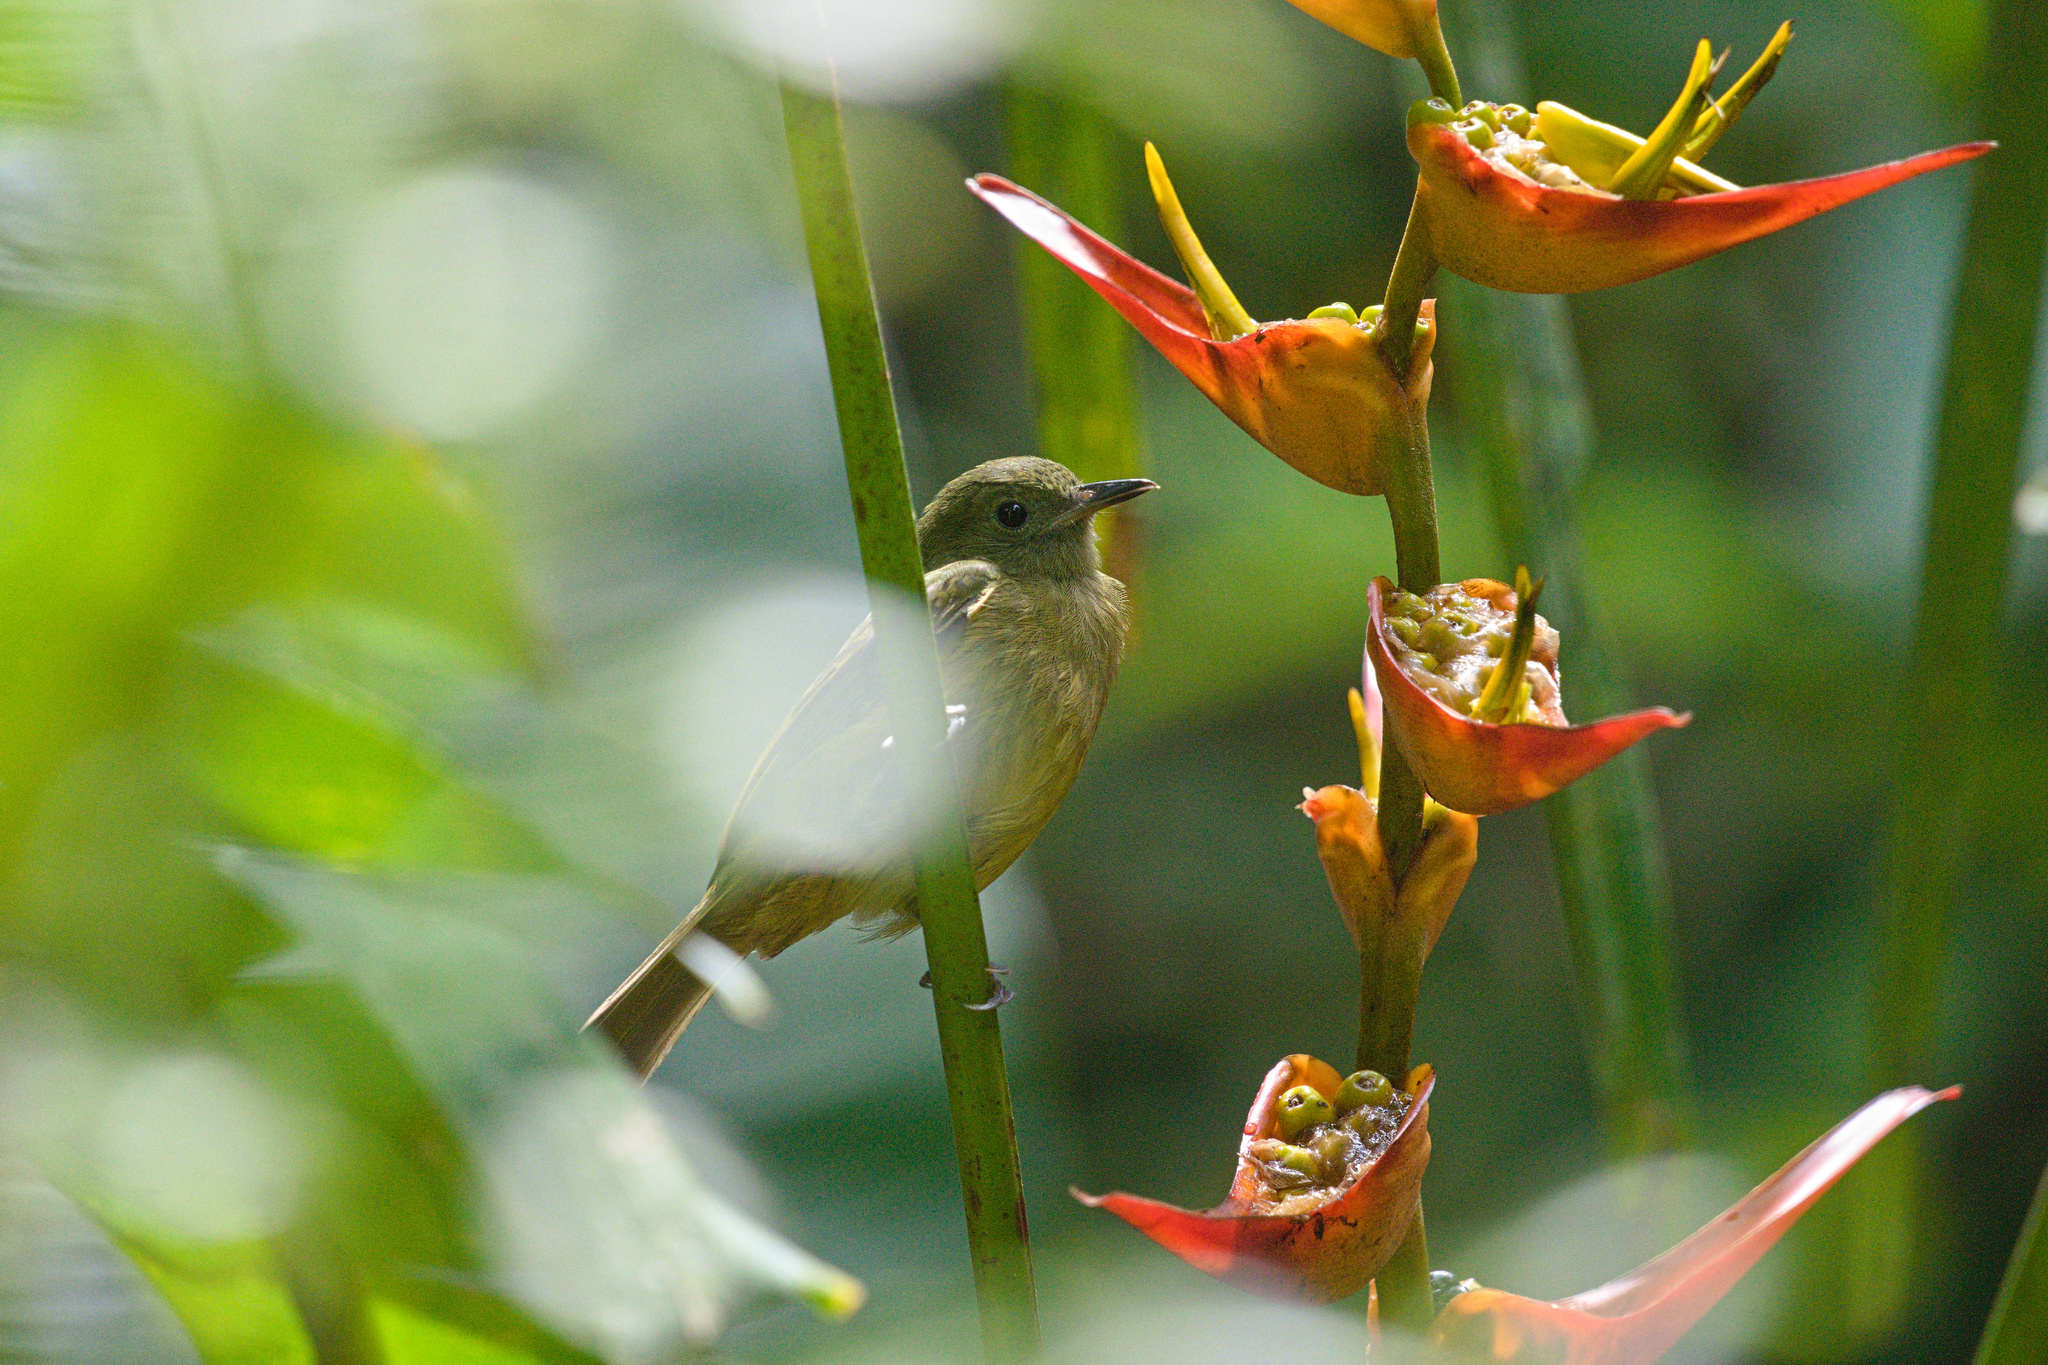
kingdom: Animalia
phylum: Chordata
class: Aves
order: Passeriformes
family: Tyrannidae
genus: Mionectes
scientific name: Mionectes oleagineus
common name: Ochre-bellied flycatcher
